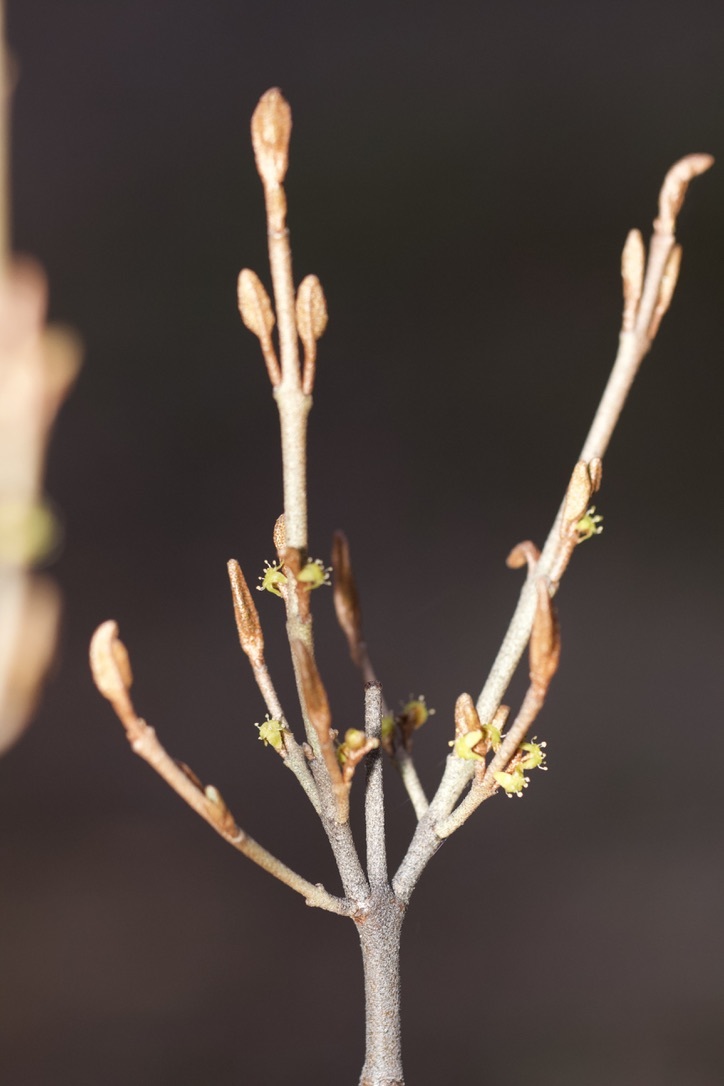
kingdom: Plantae
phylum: Tracheophyta
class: Magnoliopsida
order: Rosales
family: Elaeagnaceae
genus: Shepherdia
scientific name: Shepherdia canadensis
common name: Soapberry
